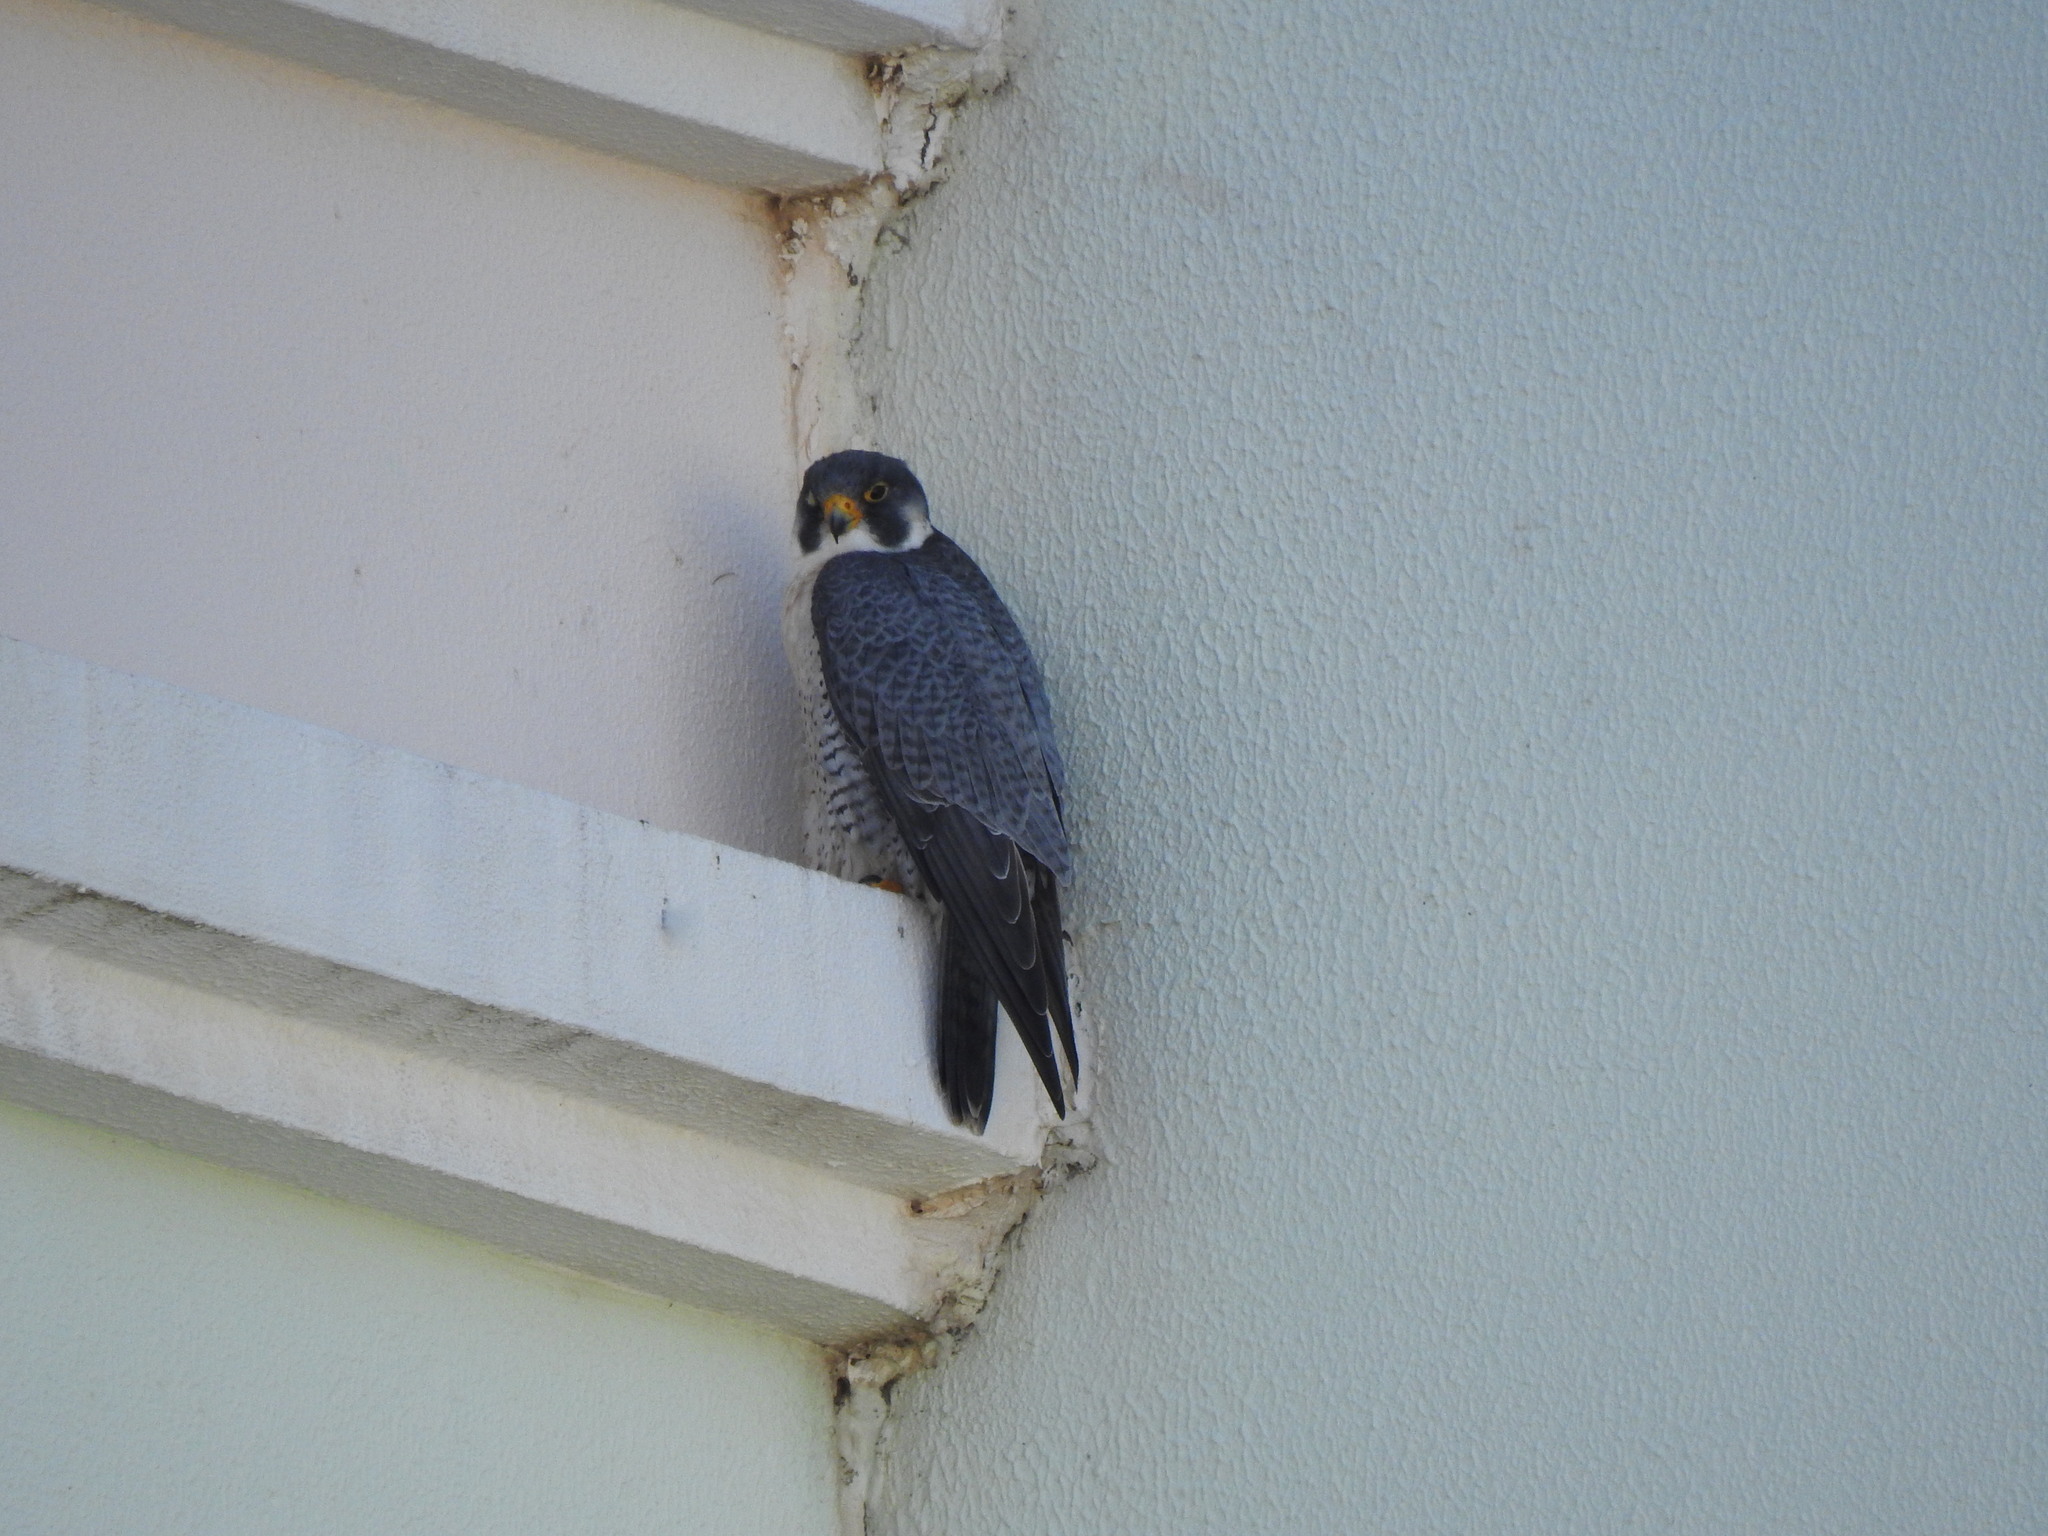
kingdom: Animalia
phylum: Chordata
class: Aves
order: Falconiformes
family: Falconidae
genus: Falco
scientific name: Falco peregrinus
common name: Peregrine falcon
